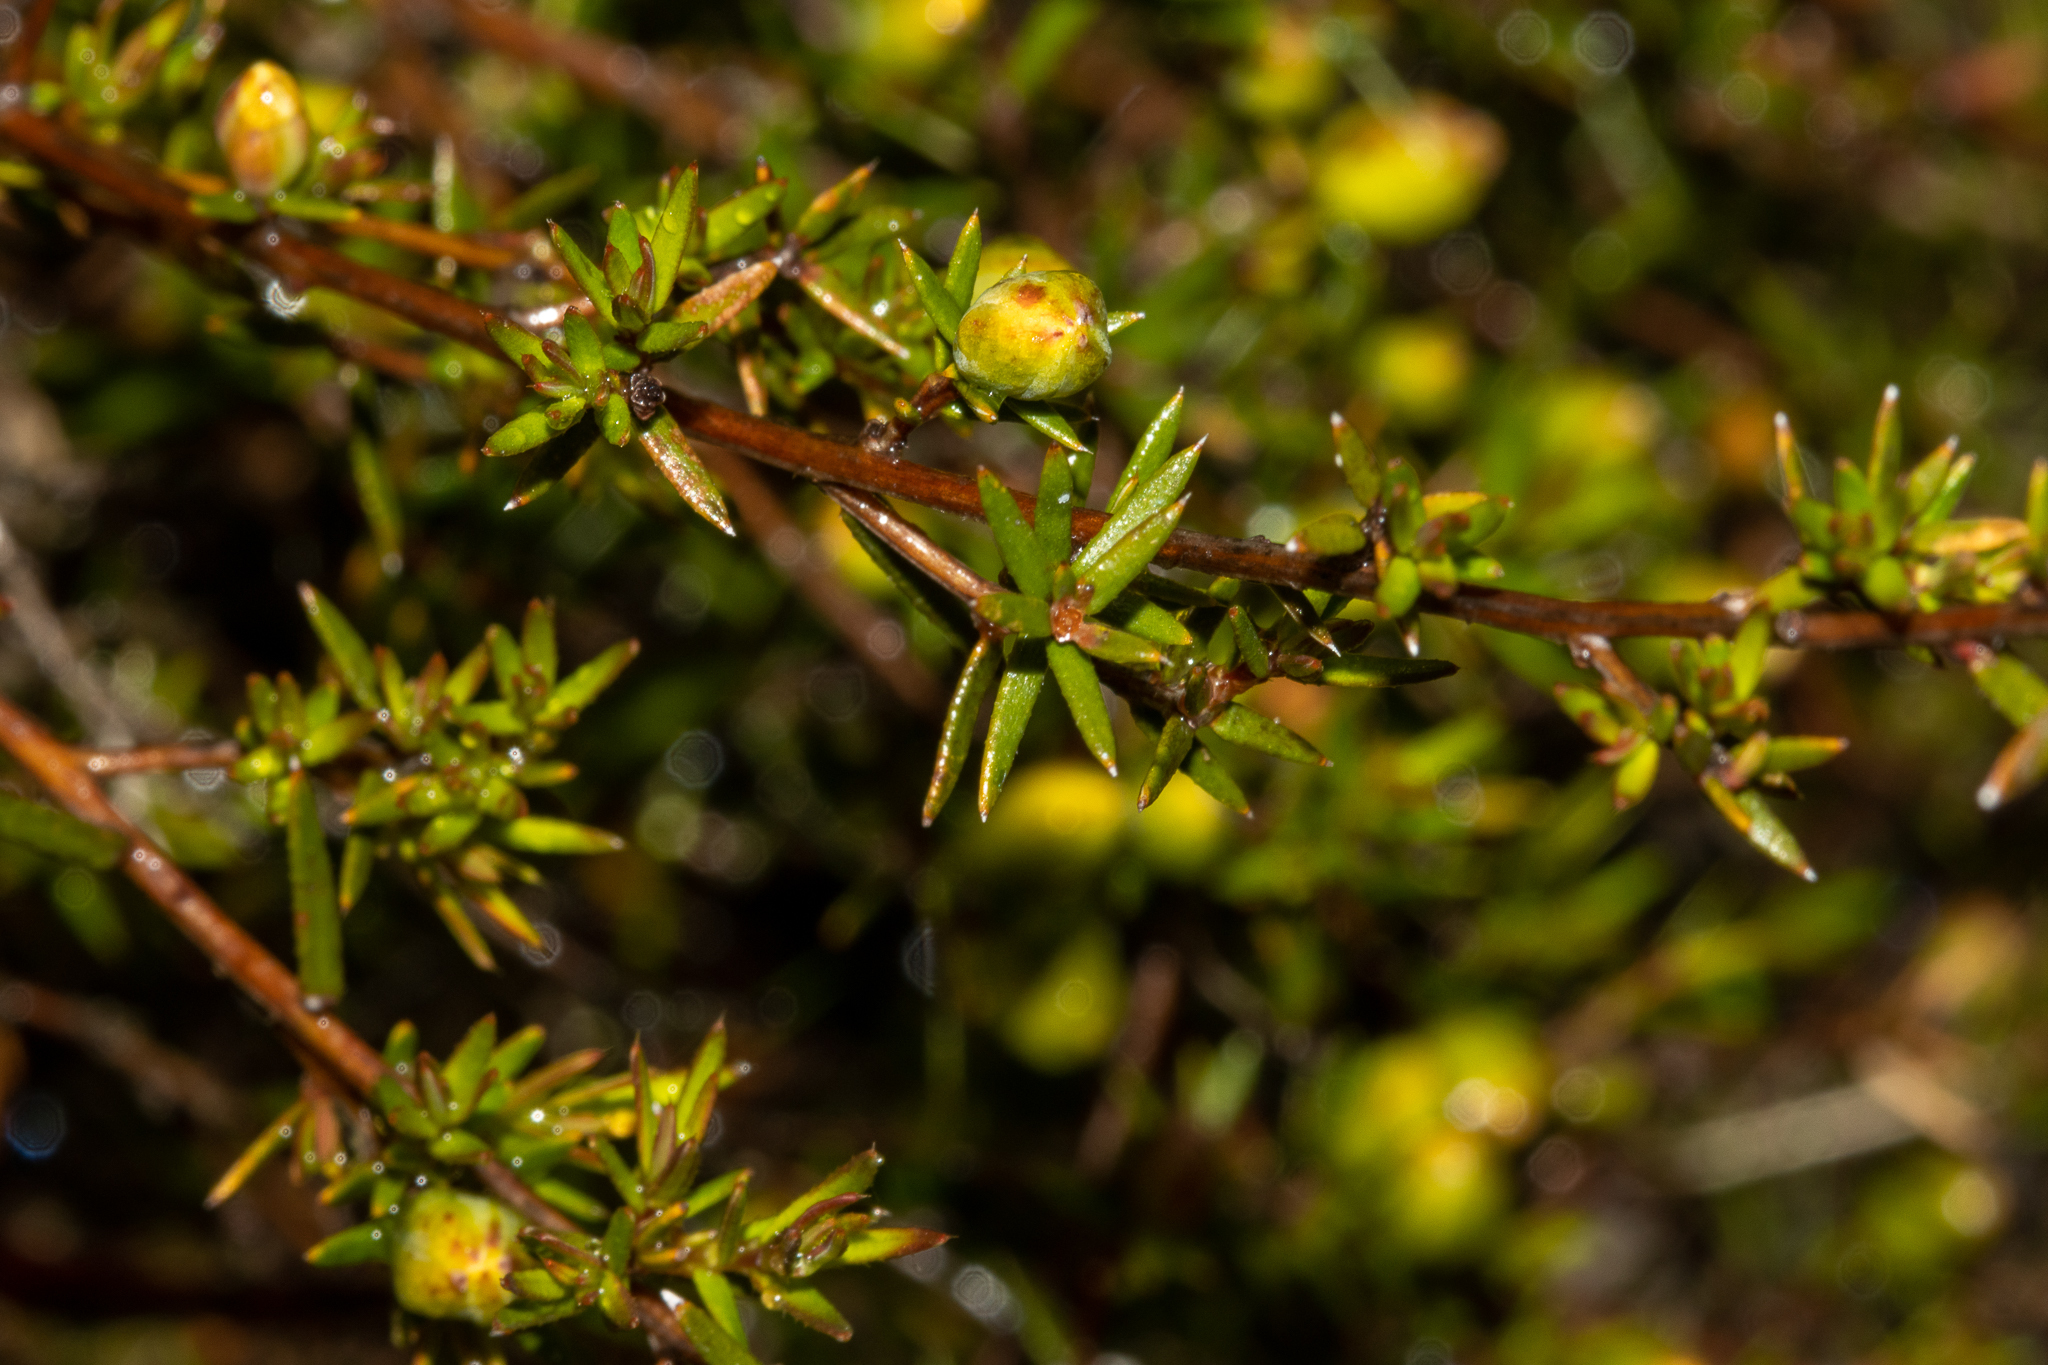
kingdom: Plantae
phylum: Tracheophyta
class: Magnoliopsida
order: Dilleniales
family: Dilleniaceae
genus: Hibbertia
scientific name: Hibbertia exutiacies
